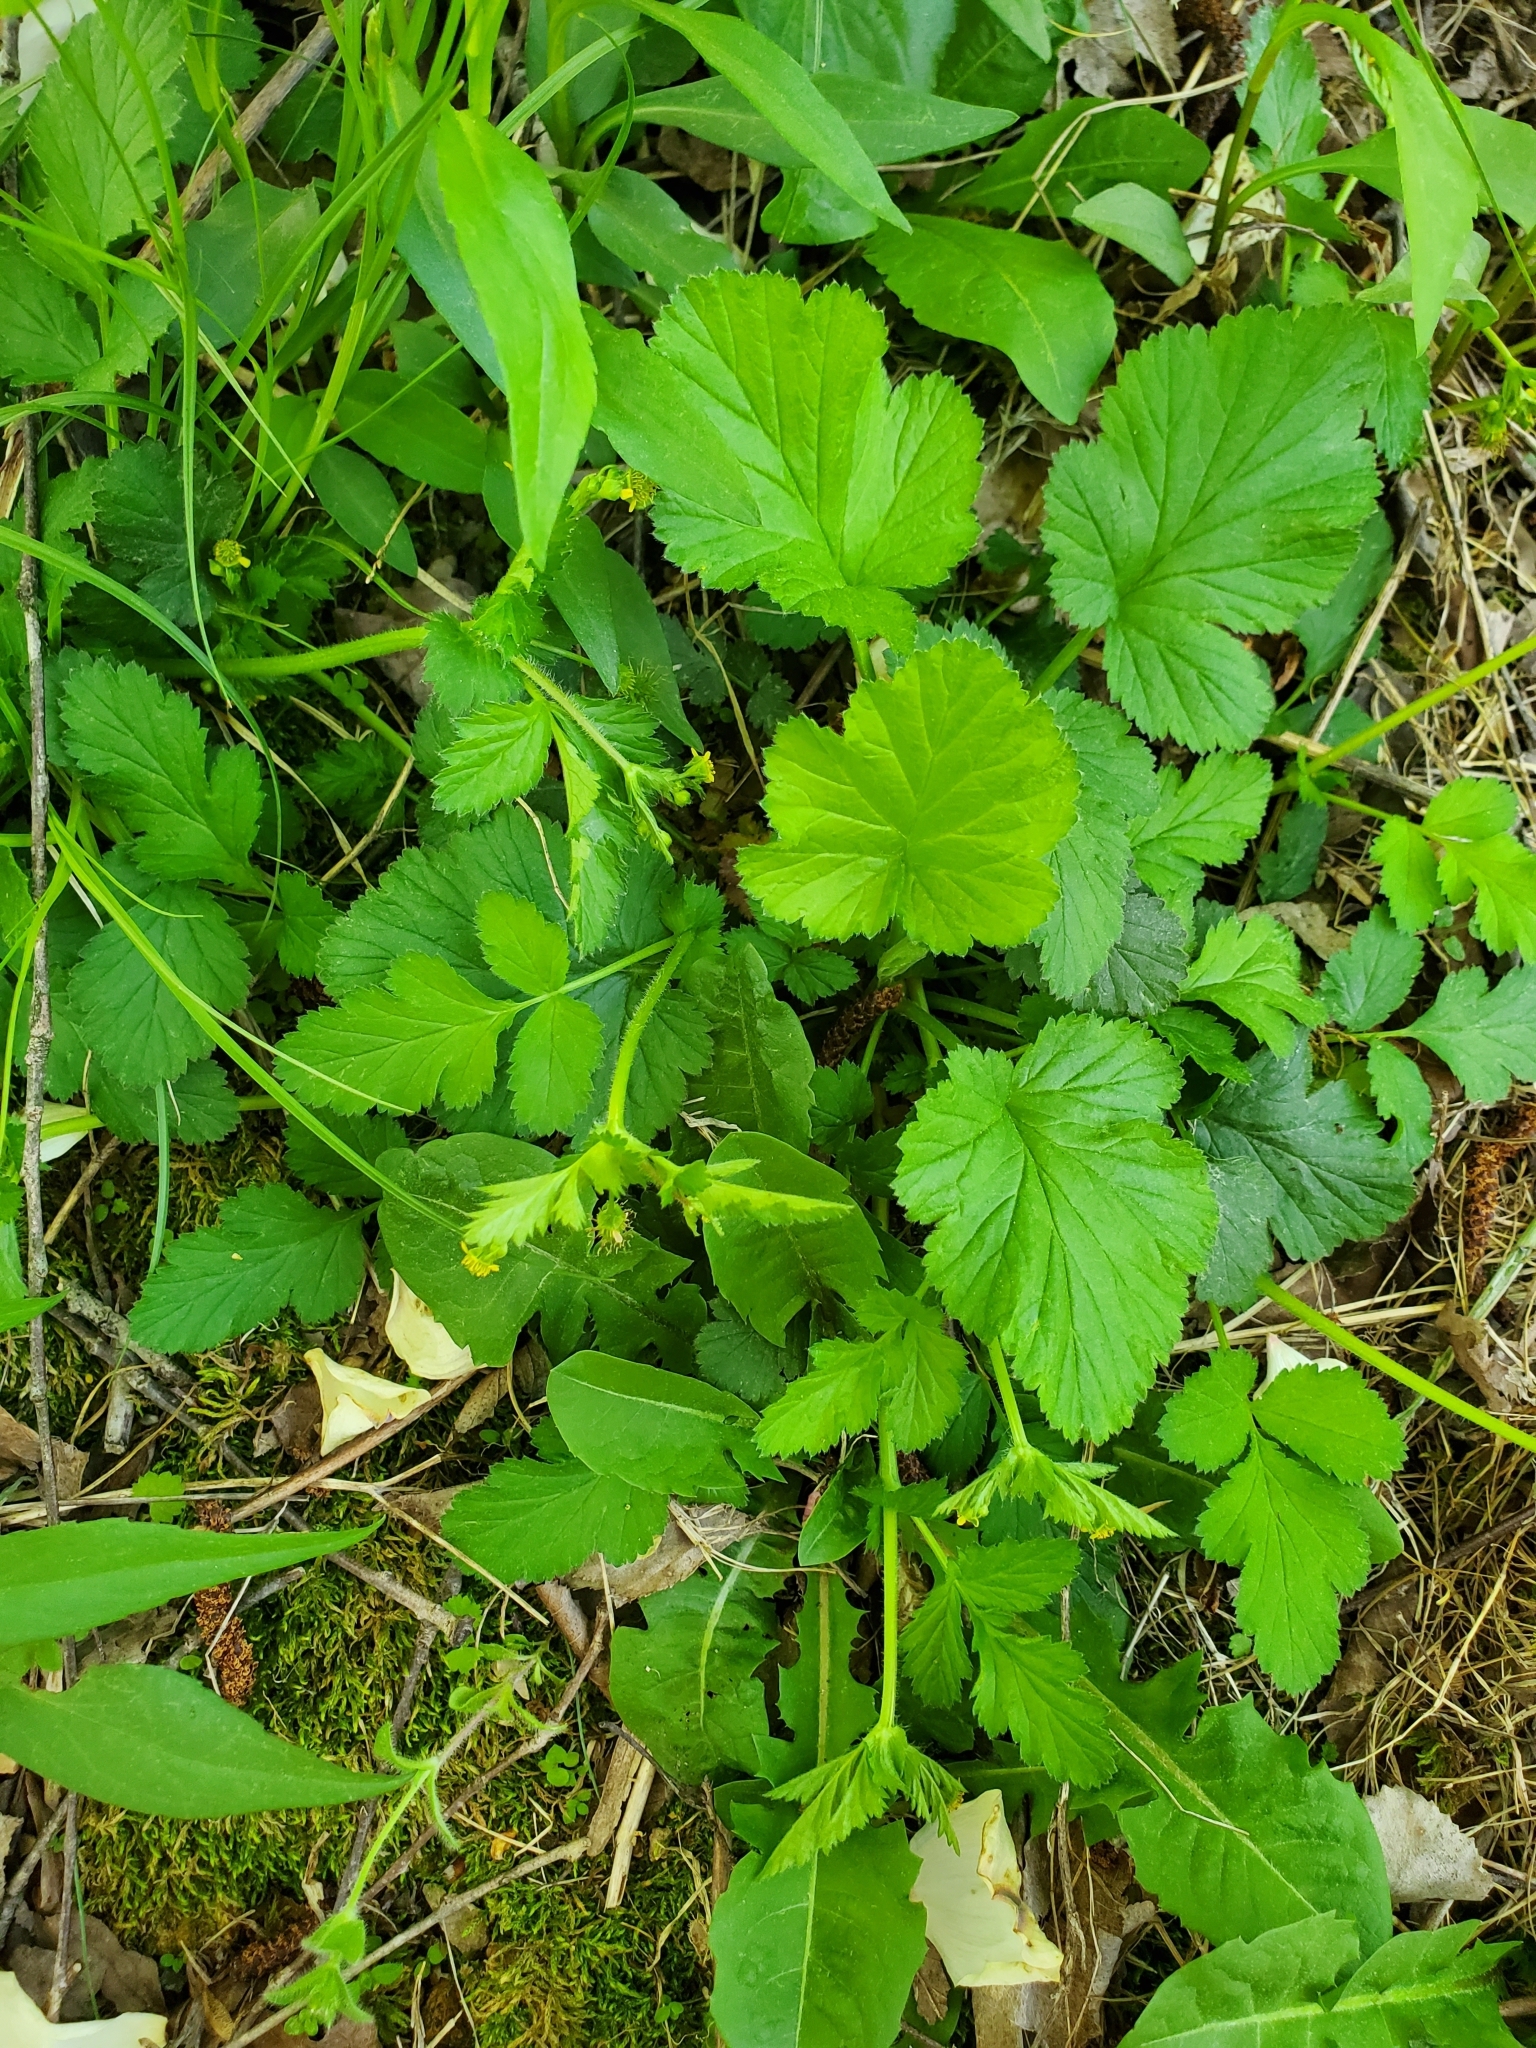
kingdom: Plantae
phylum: Tracheophyta
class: Magnoliopsida
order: Rosales
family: Rosaceae
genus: Geum
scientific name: Geum vernum
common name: Spring avens
